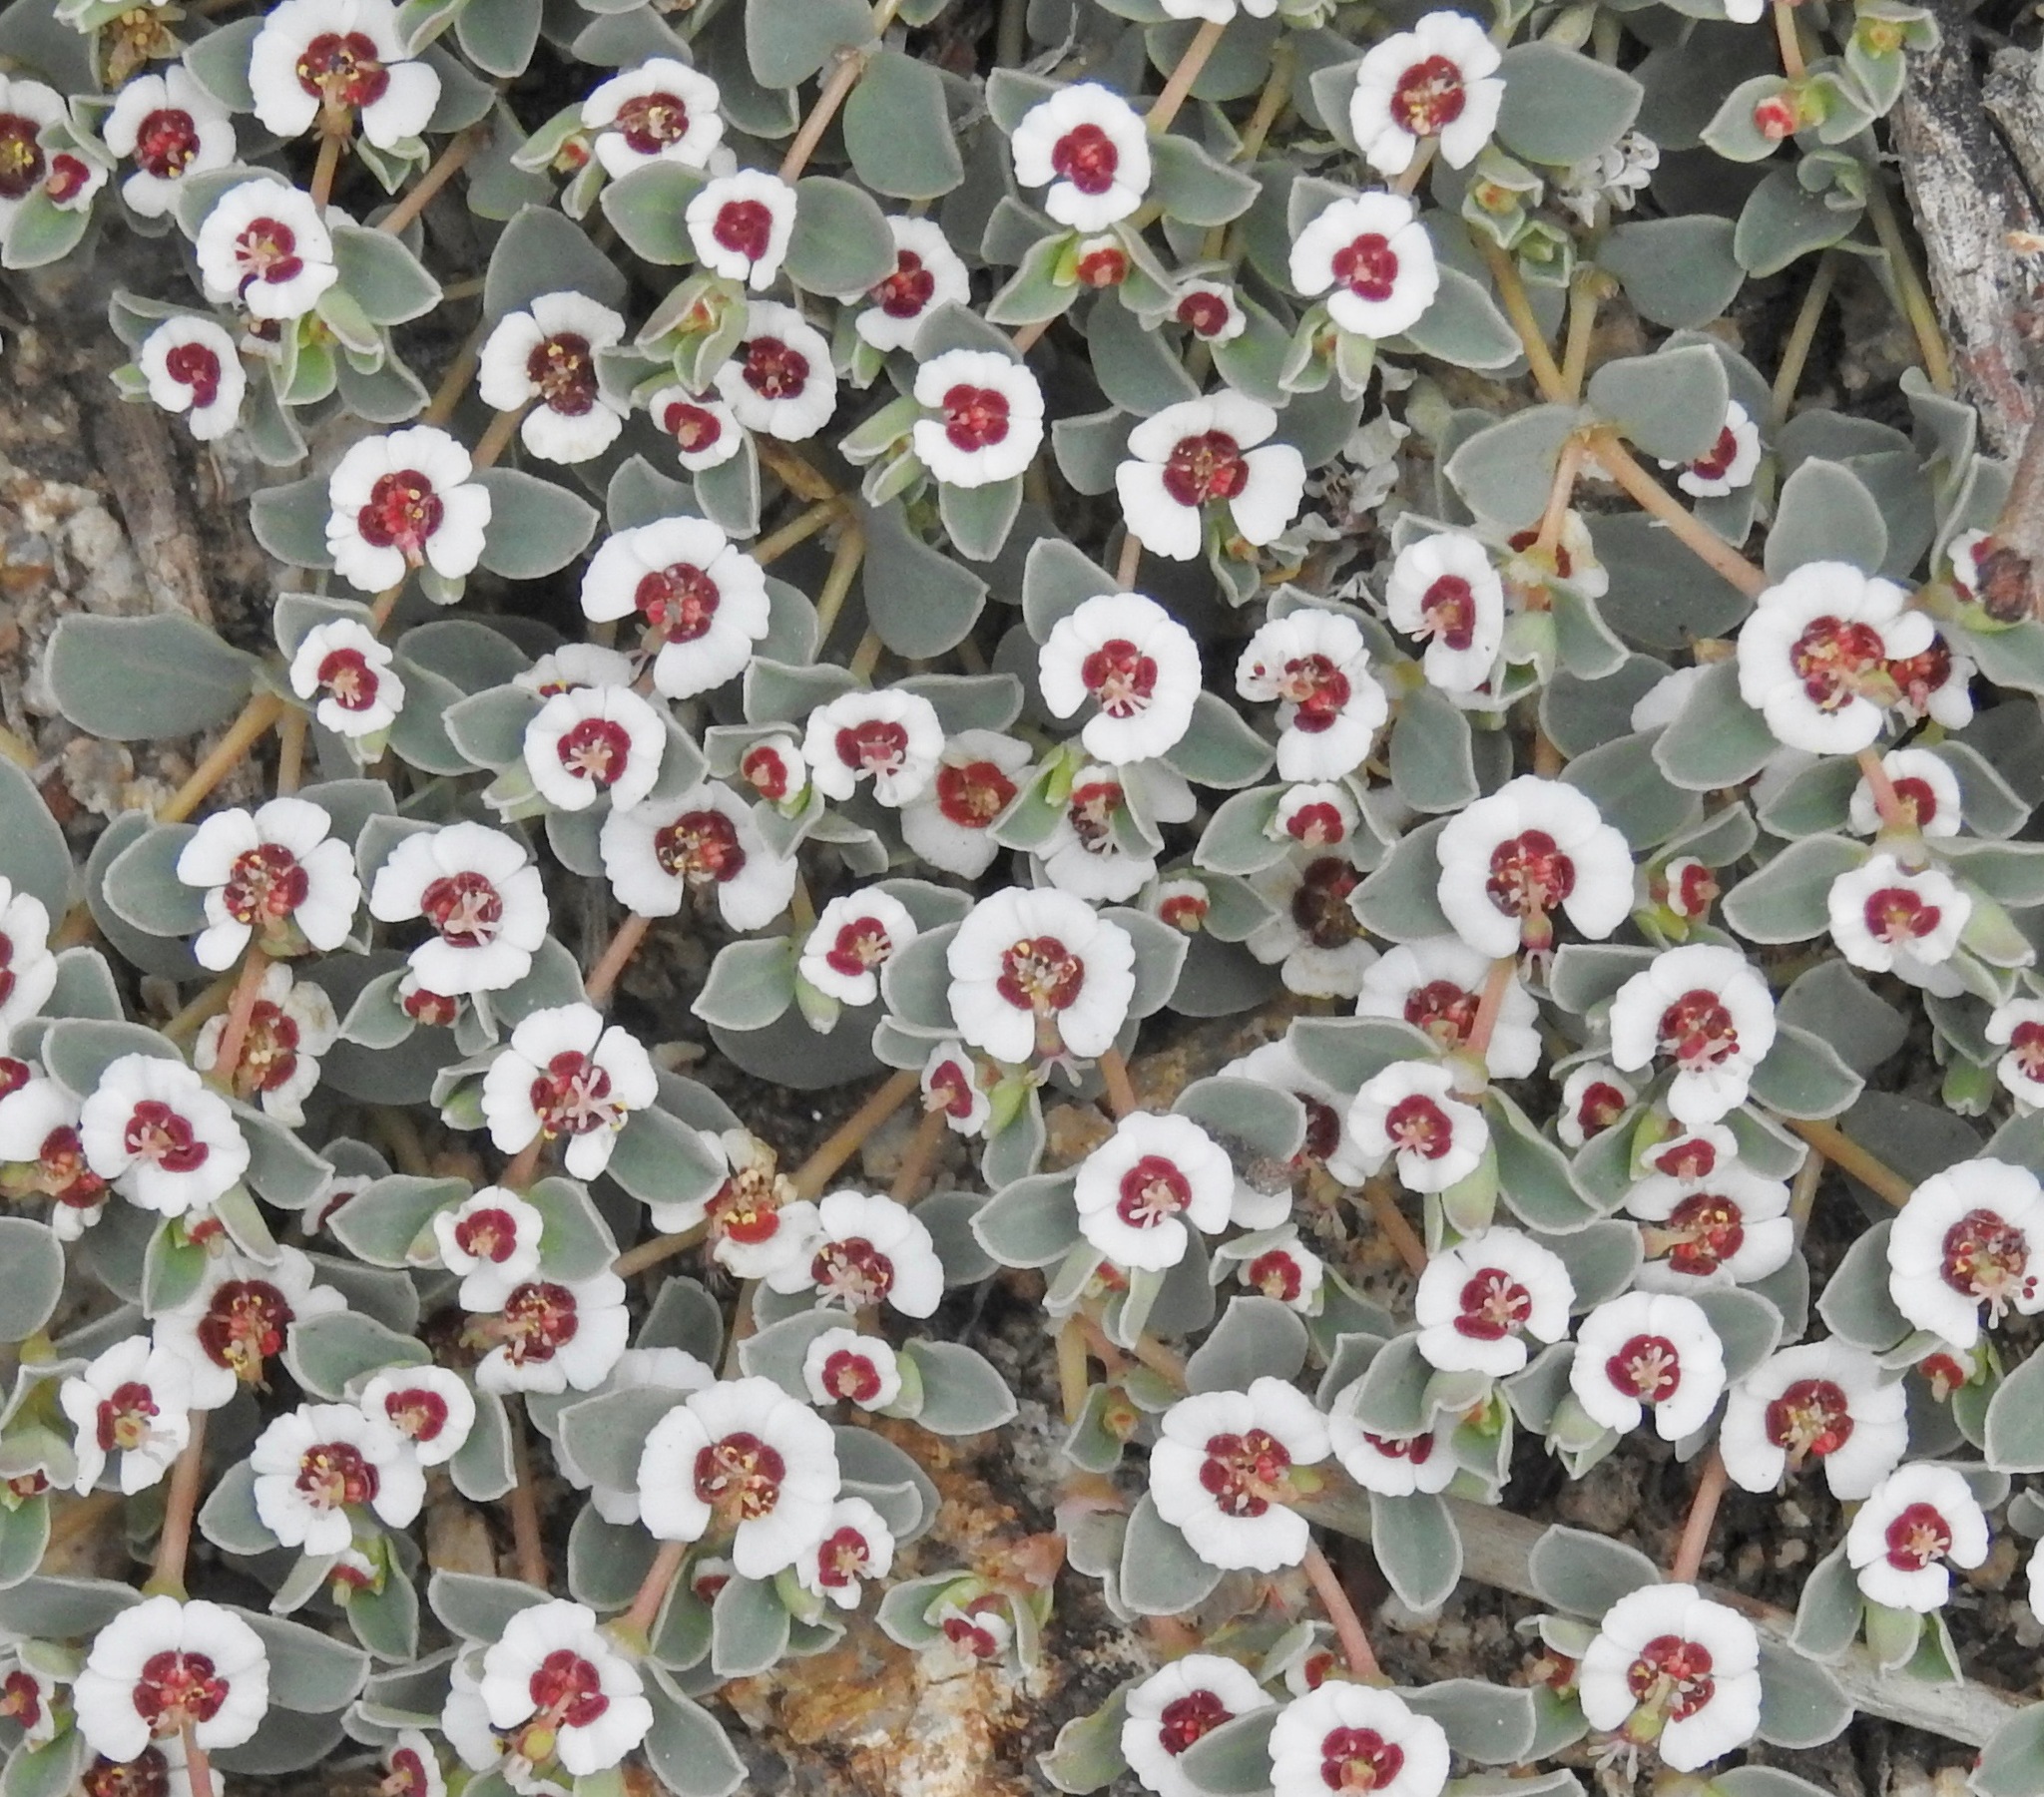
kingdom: Plantae
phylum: Tracheophyta
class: Magnoliopsida
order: Malpighiales
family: Euphorbiaceae
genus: Euphorbia
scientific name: Euphorbia albomarginata
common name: Whitemargin sandmat
